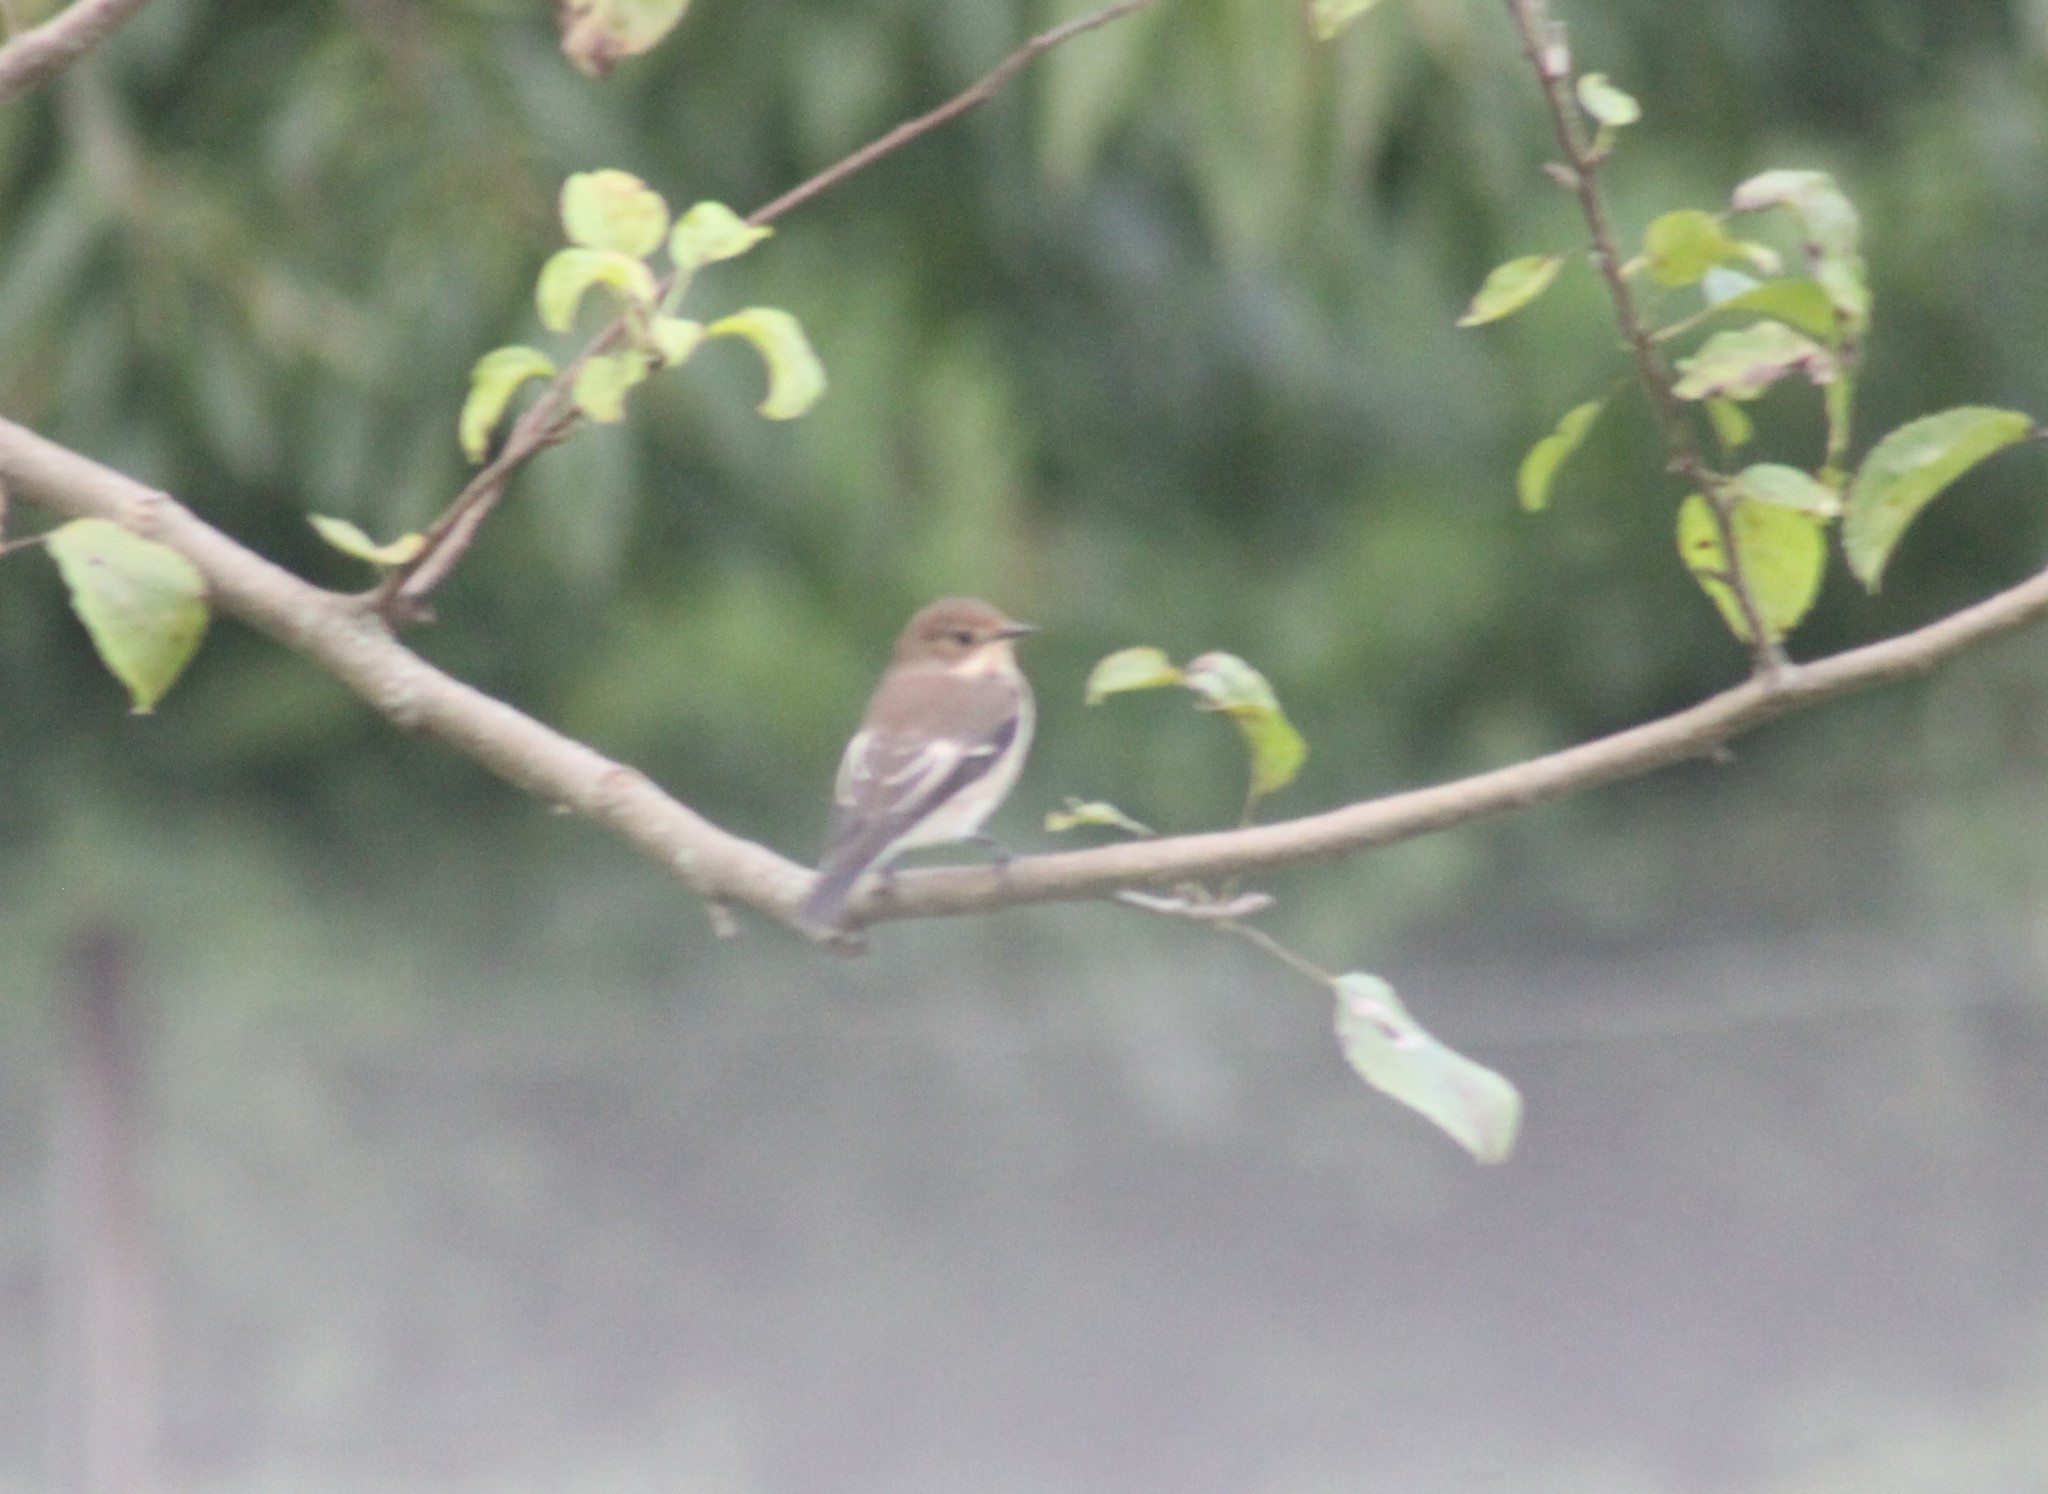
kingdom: Animalia
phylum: Chordata
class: Aves
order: Passeriformes
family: Muscicapidae
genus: Ficedula
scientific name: Ficedula hypoleuca
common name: European pied flycatcher
